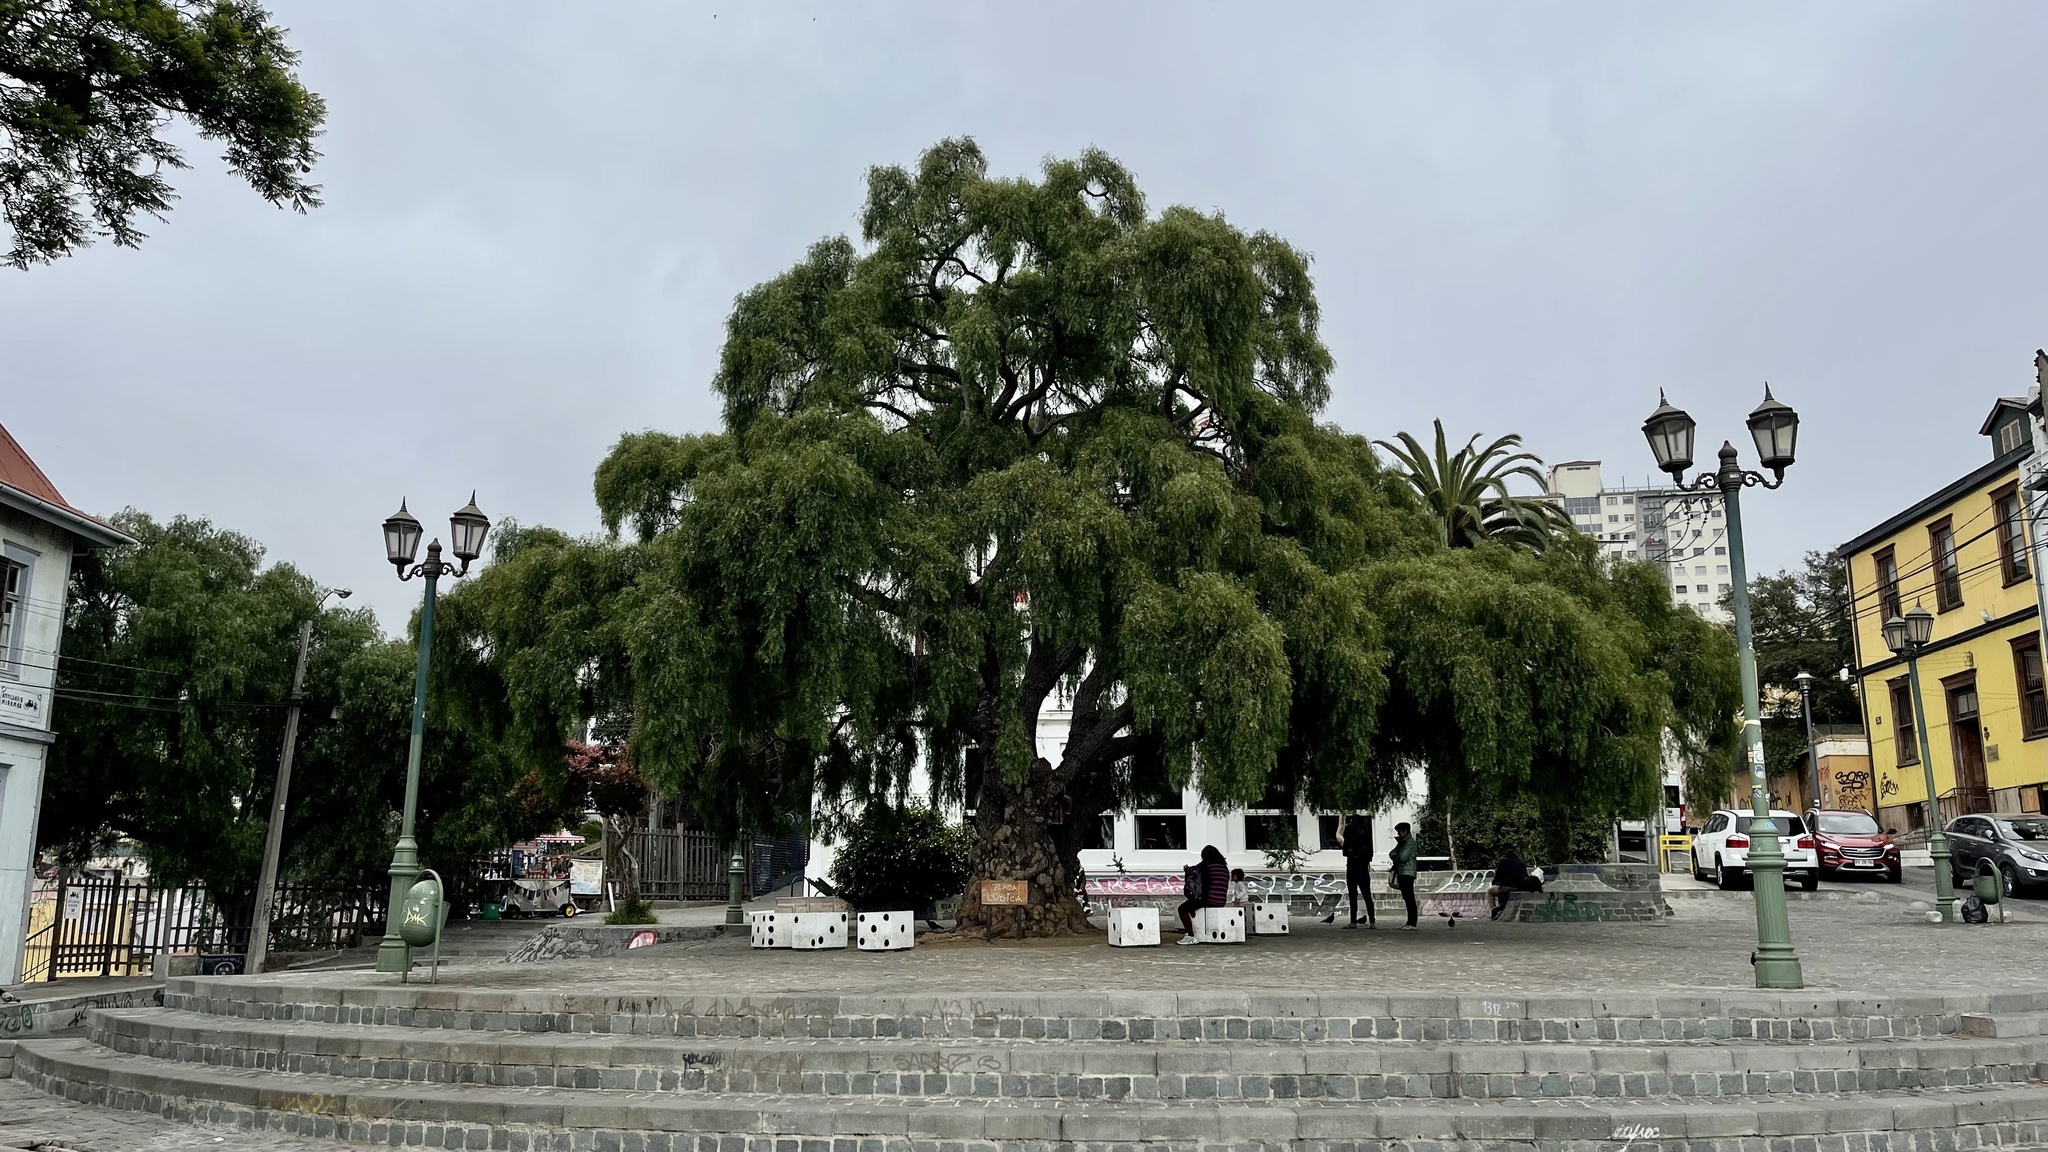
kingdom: Plantae
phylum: Tracheophyta
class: Magnoliopsida
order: Sapindales
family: Anacardiaceae
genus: Schinus
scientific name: Schinus areira
